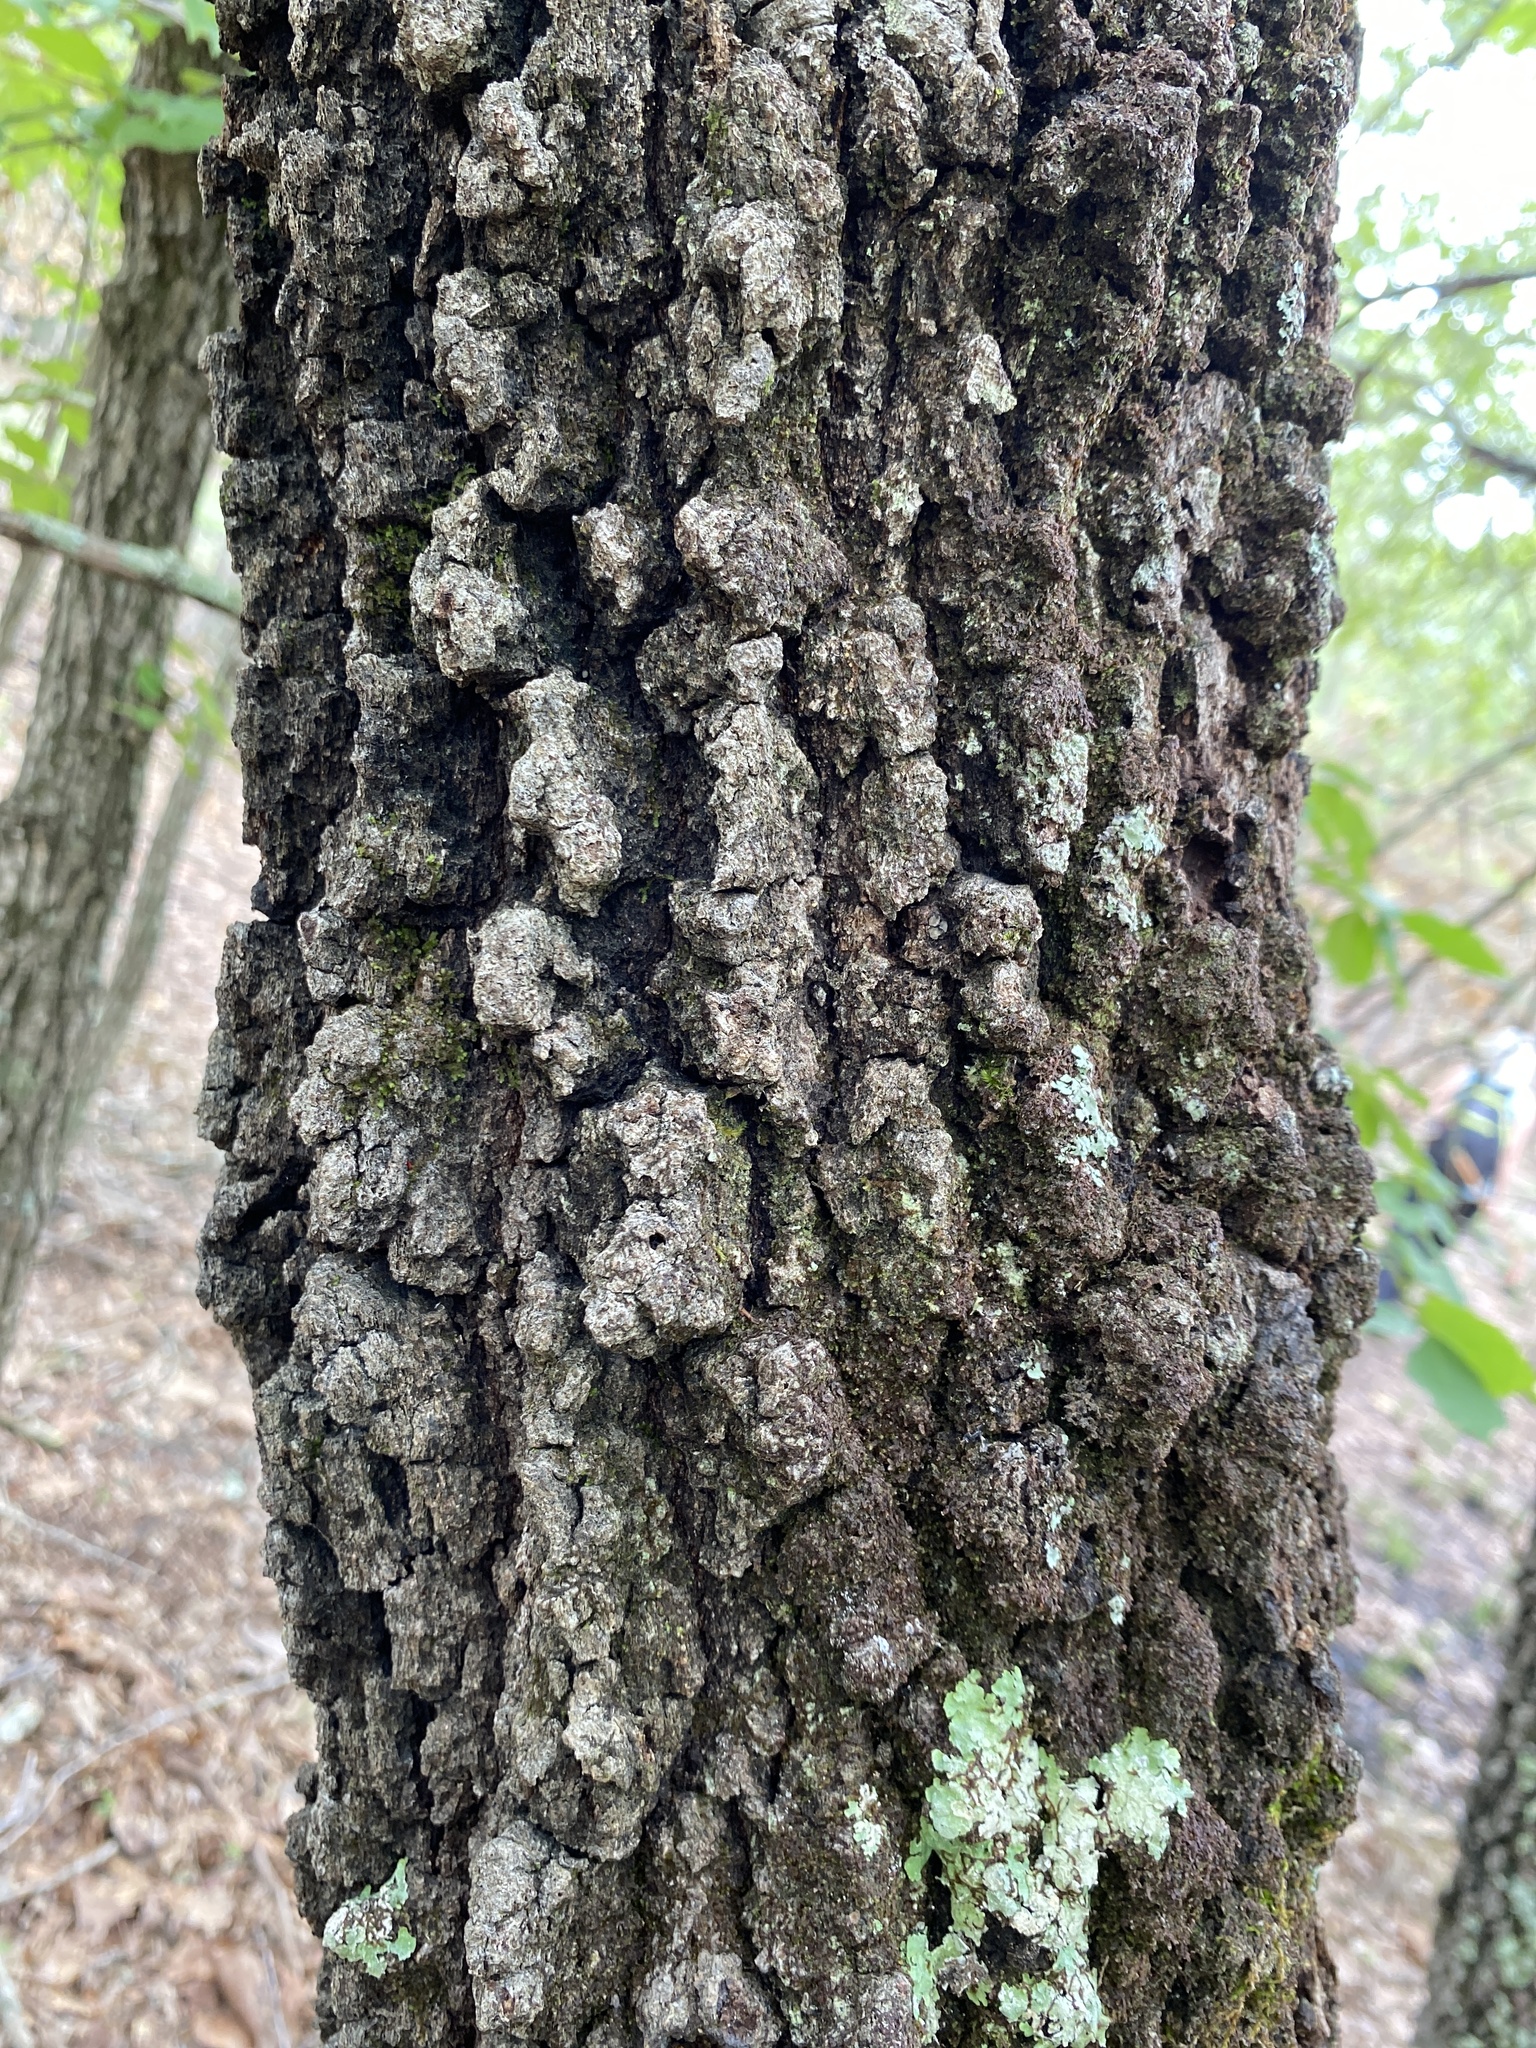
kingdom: Plantae
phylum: Tracheophyta
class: Magnoliopsida
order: Fagales
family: Fagaceae
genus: Quercus
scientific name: Quercus marilandica
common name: Blackjack oak
